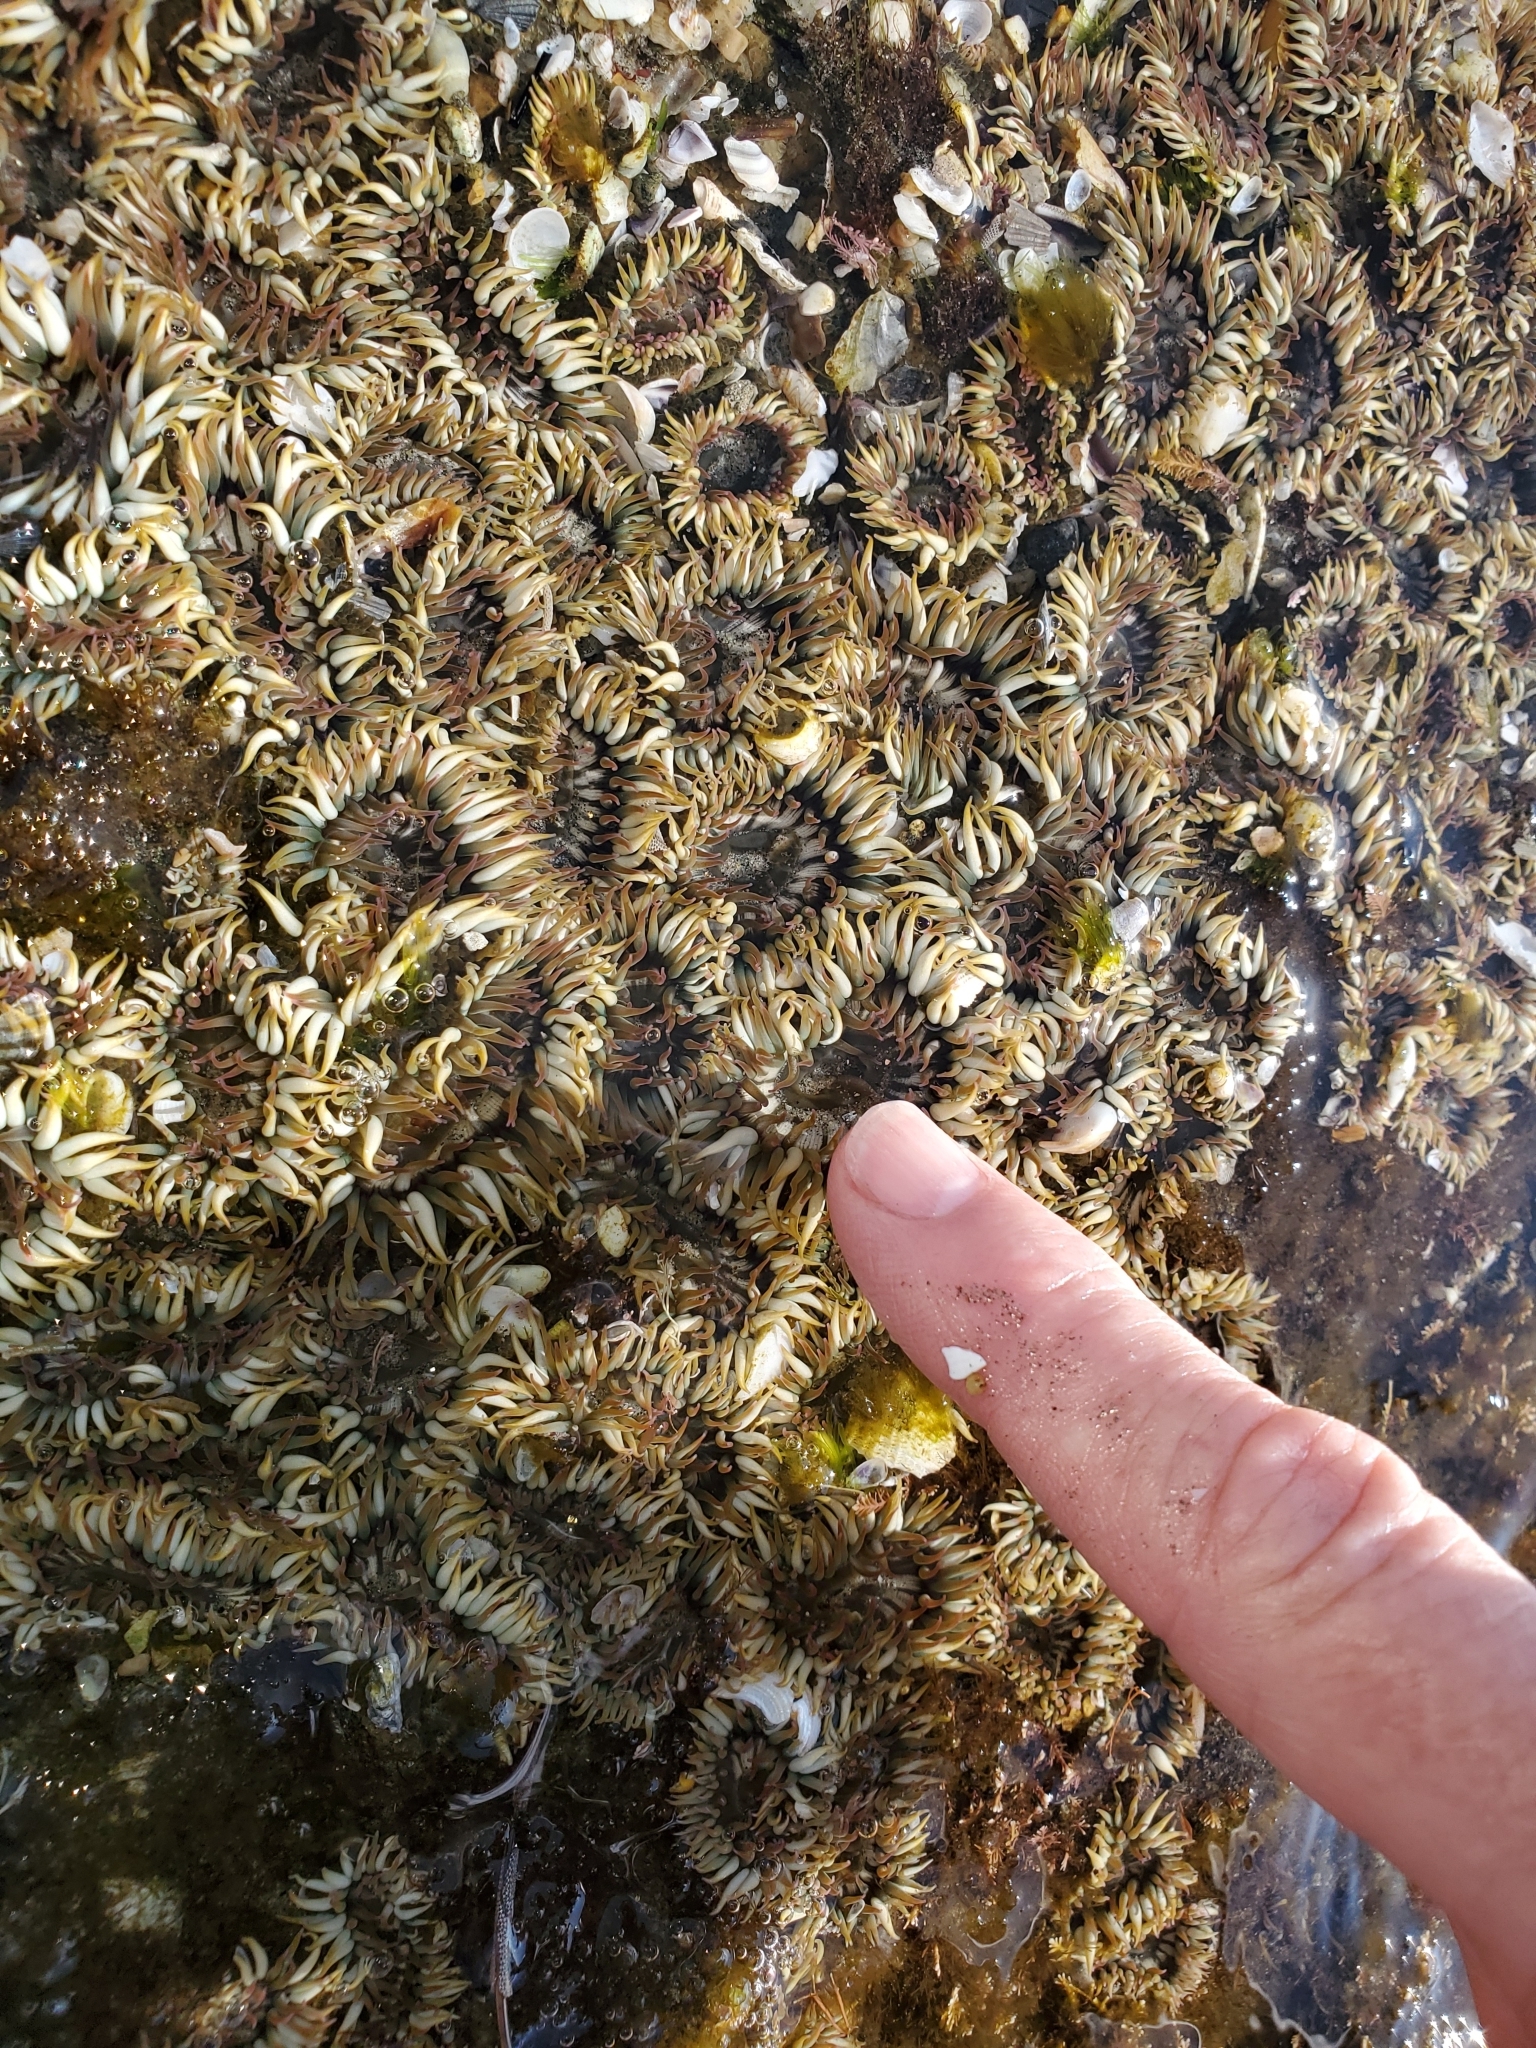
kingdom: Animalia
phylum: Cnidaria
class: Anthozoa
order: Actiniaria
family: Actiniidae
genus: Anthopleura
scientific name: Anthopleura elegantissima
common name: Clonal anemone
